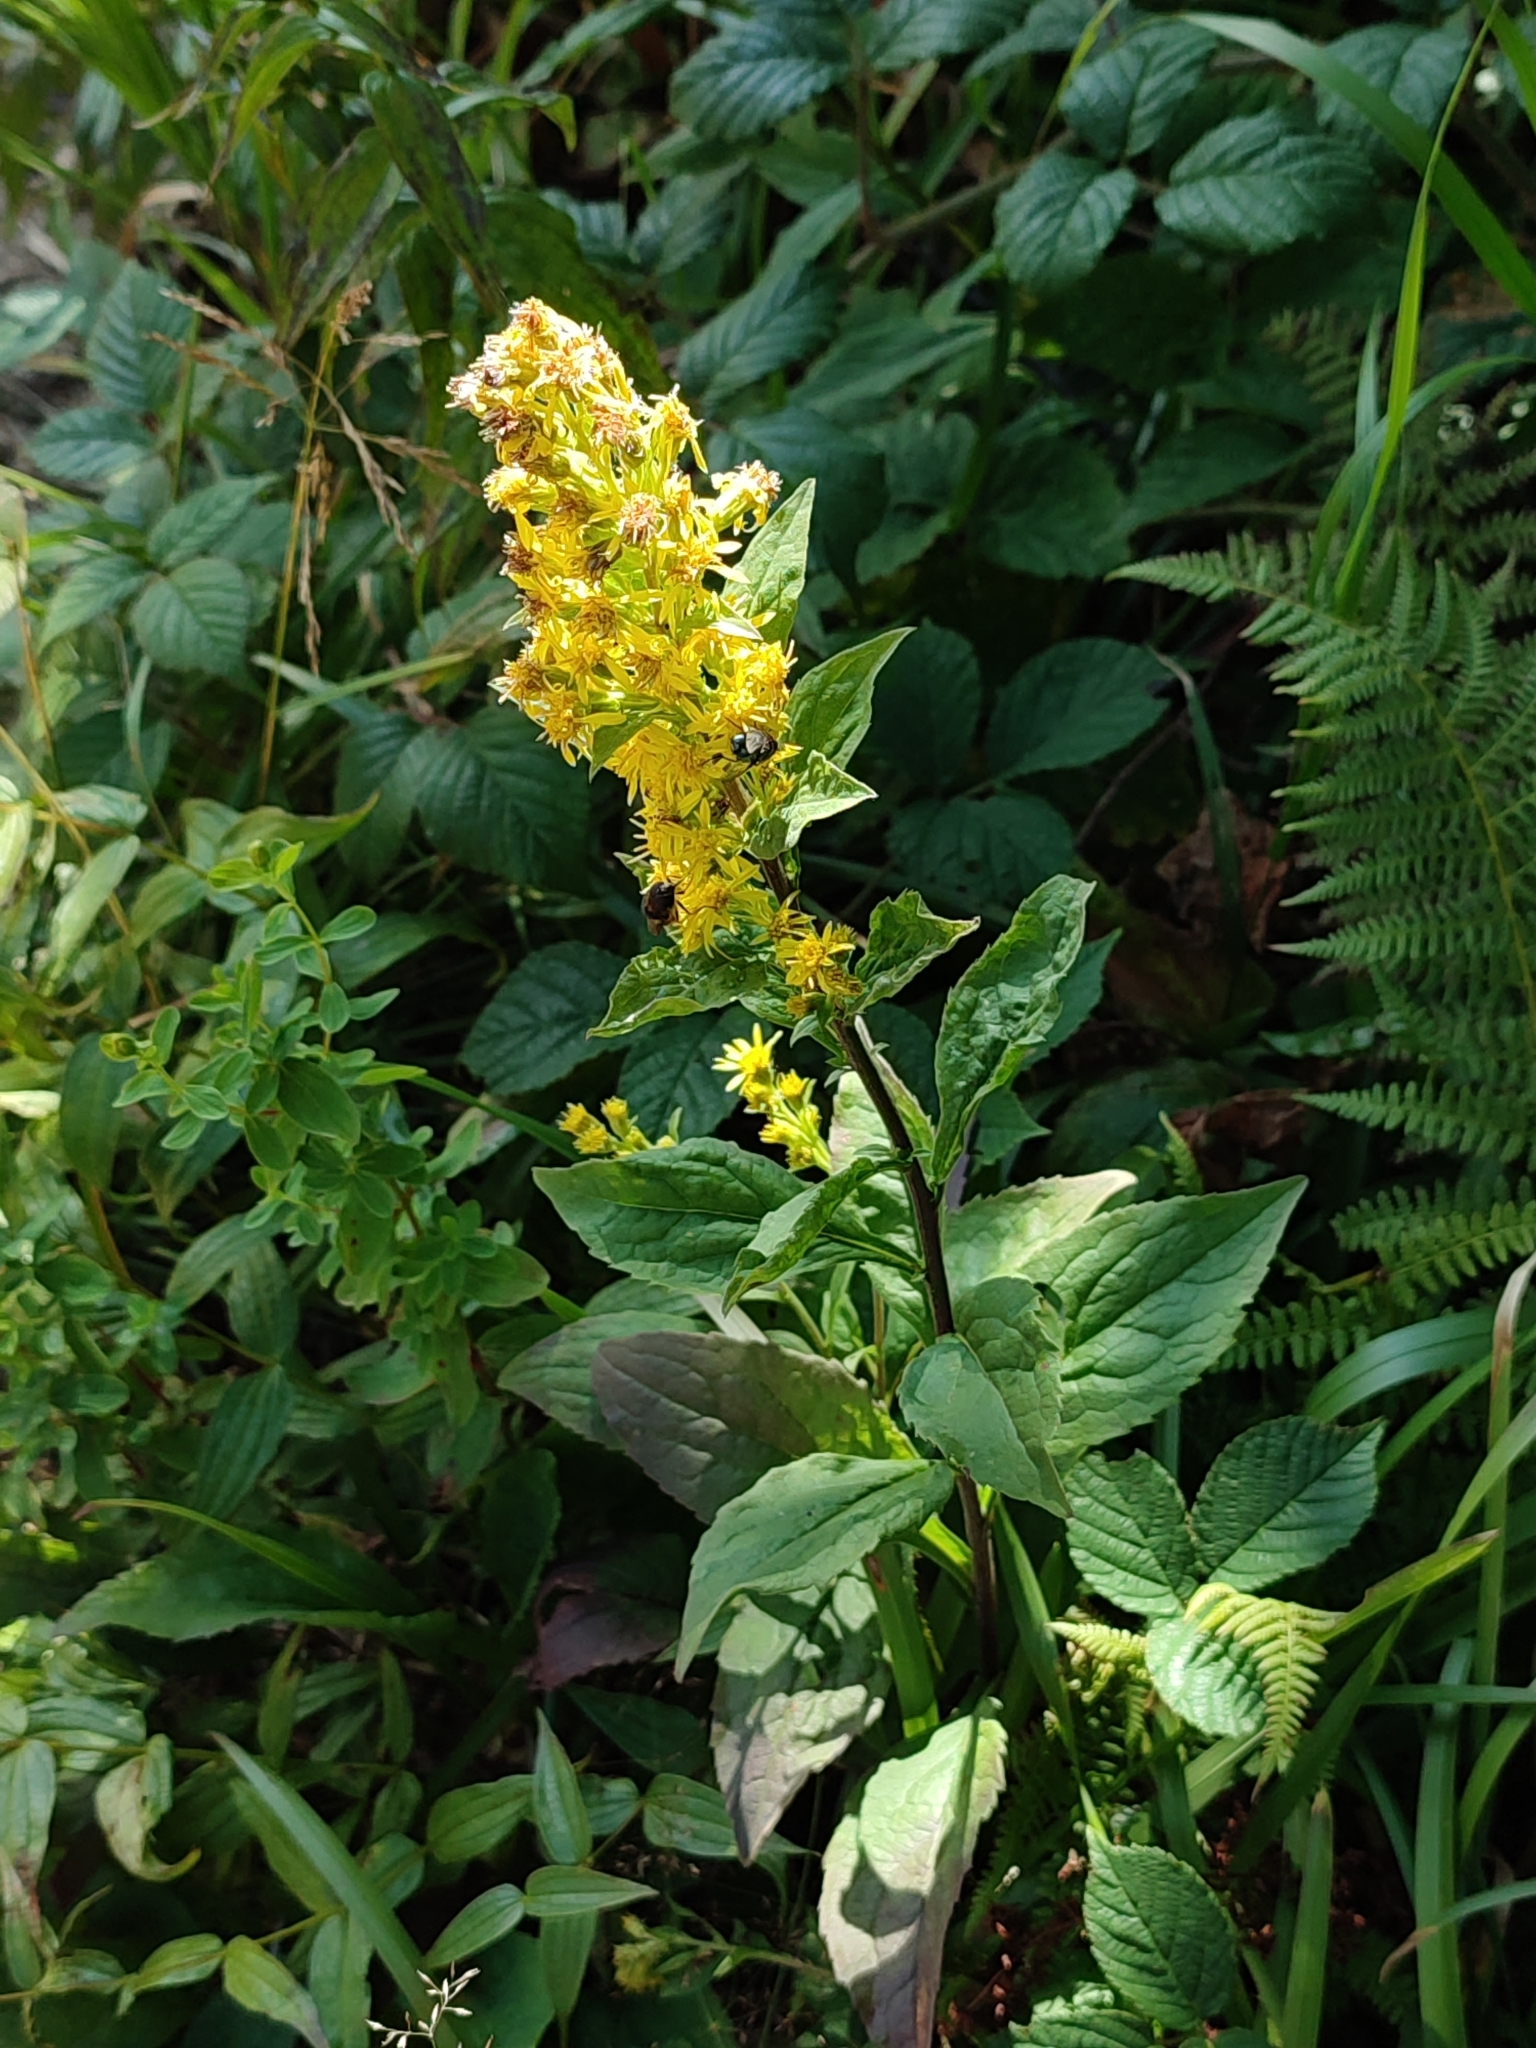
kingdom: Plantae
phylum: Tracheophyta
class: Magnoliopsida
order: Asterales
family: Asteraceae
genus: Solidago
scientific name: Solidago virgaurea
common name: Goldenrod
